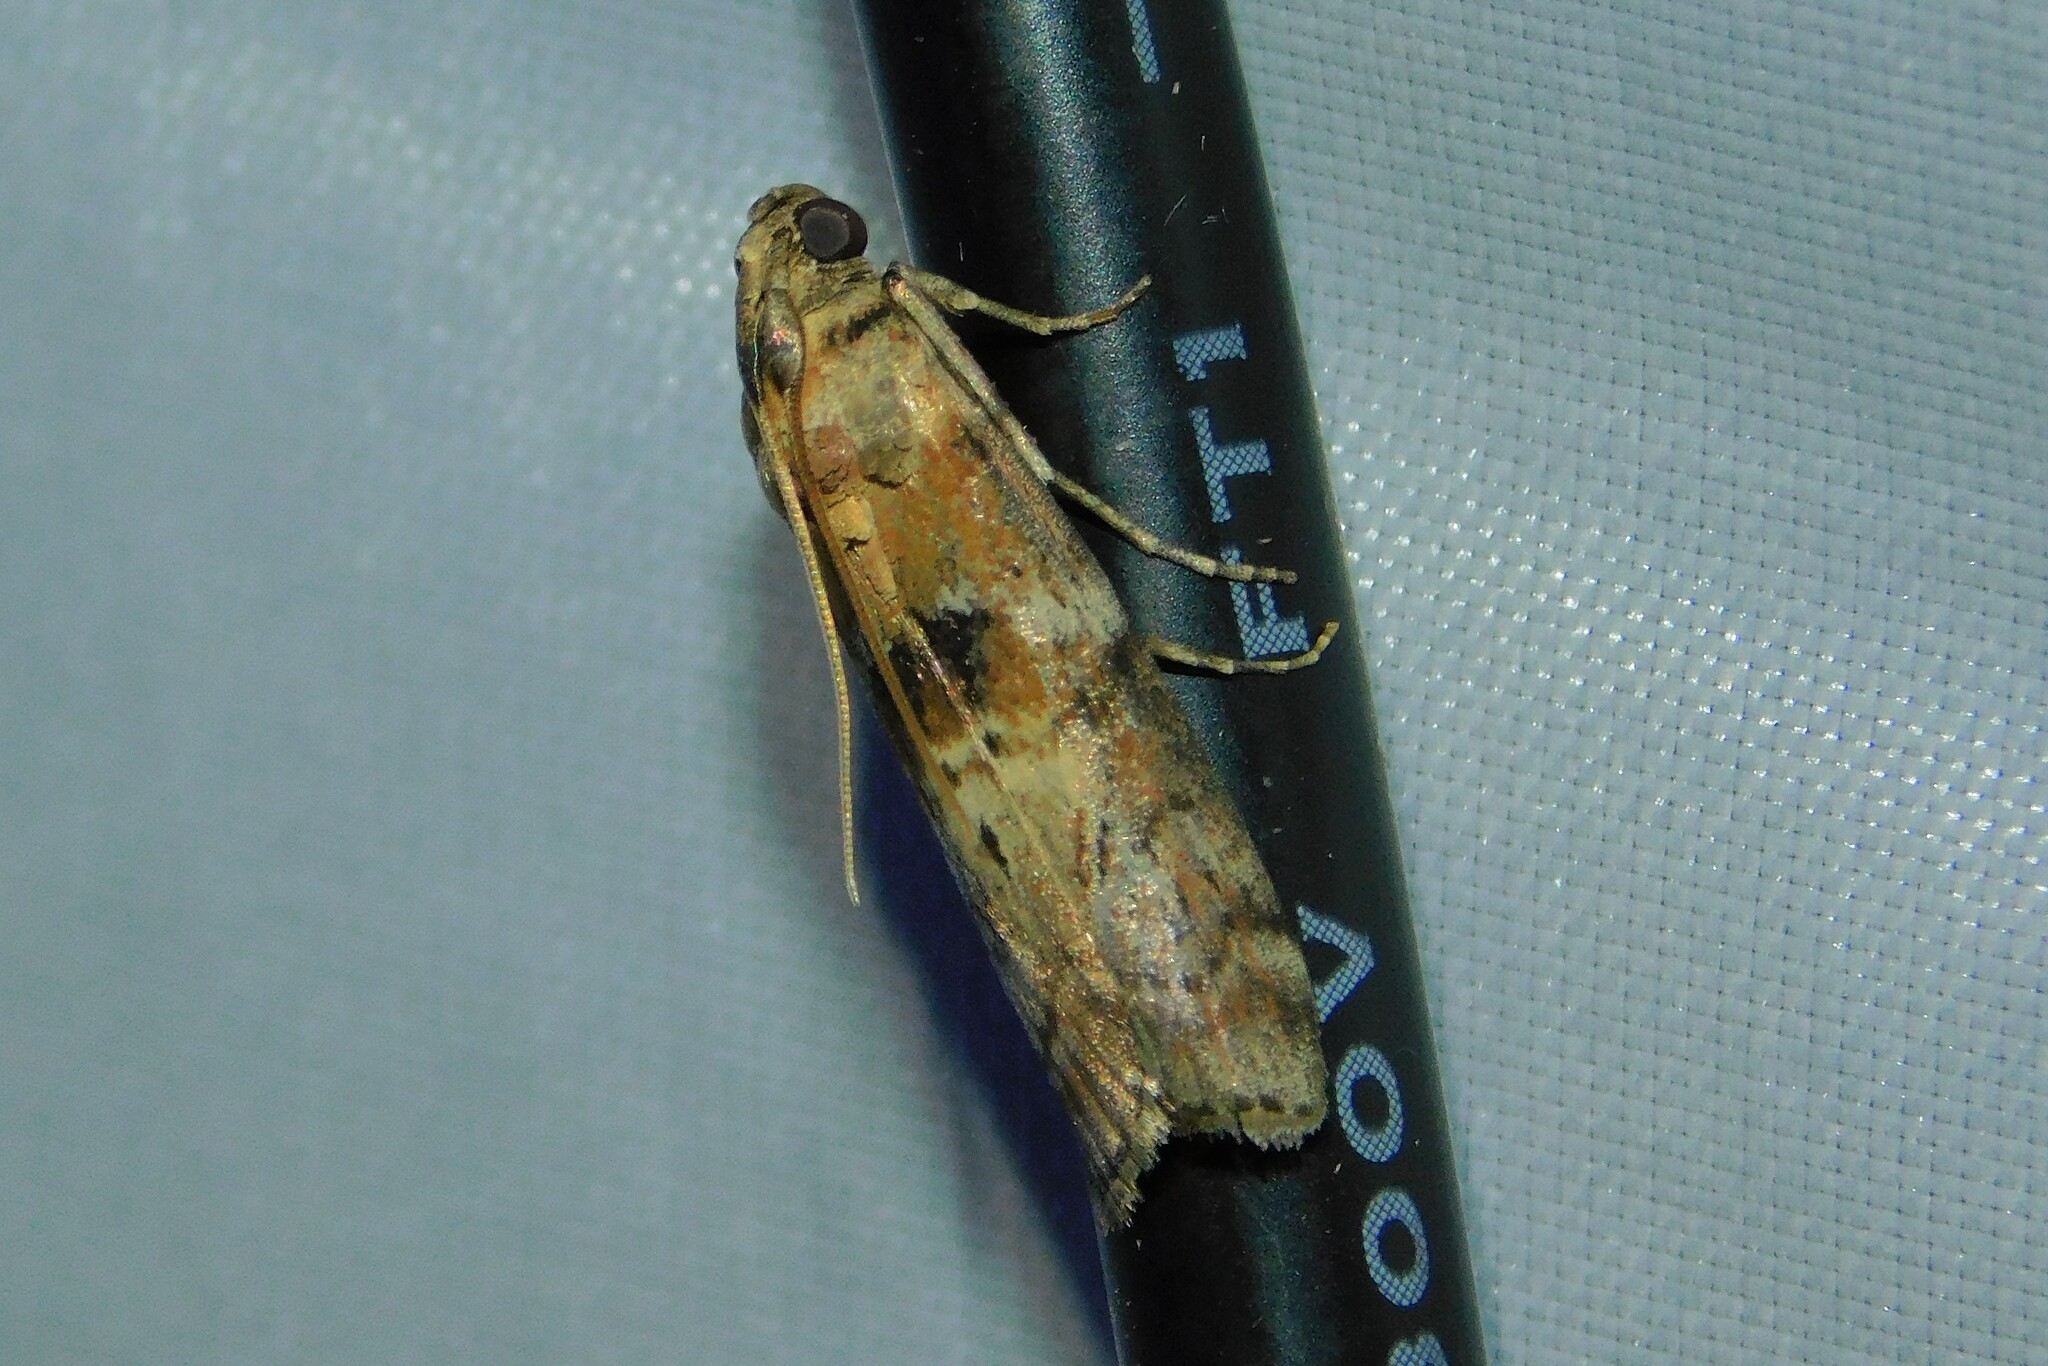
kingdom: Animalia
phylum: Arthropoda
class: Insecta
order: Lepidoptera
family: Pyralidae
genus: Phycita
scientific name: Phycita roborella
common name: Dotted oak knot-horn
